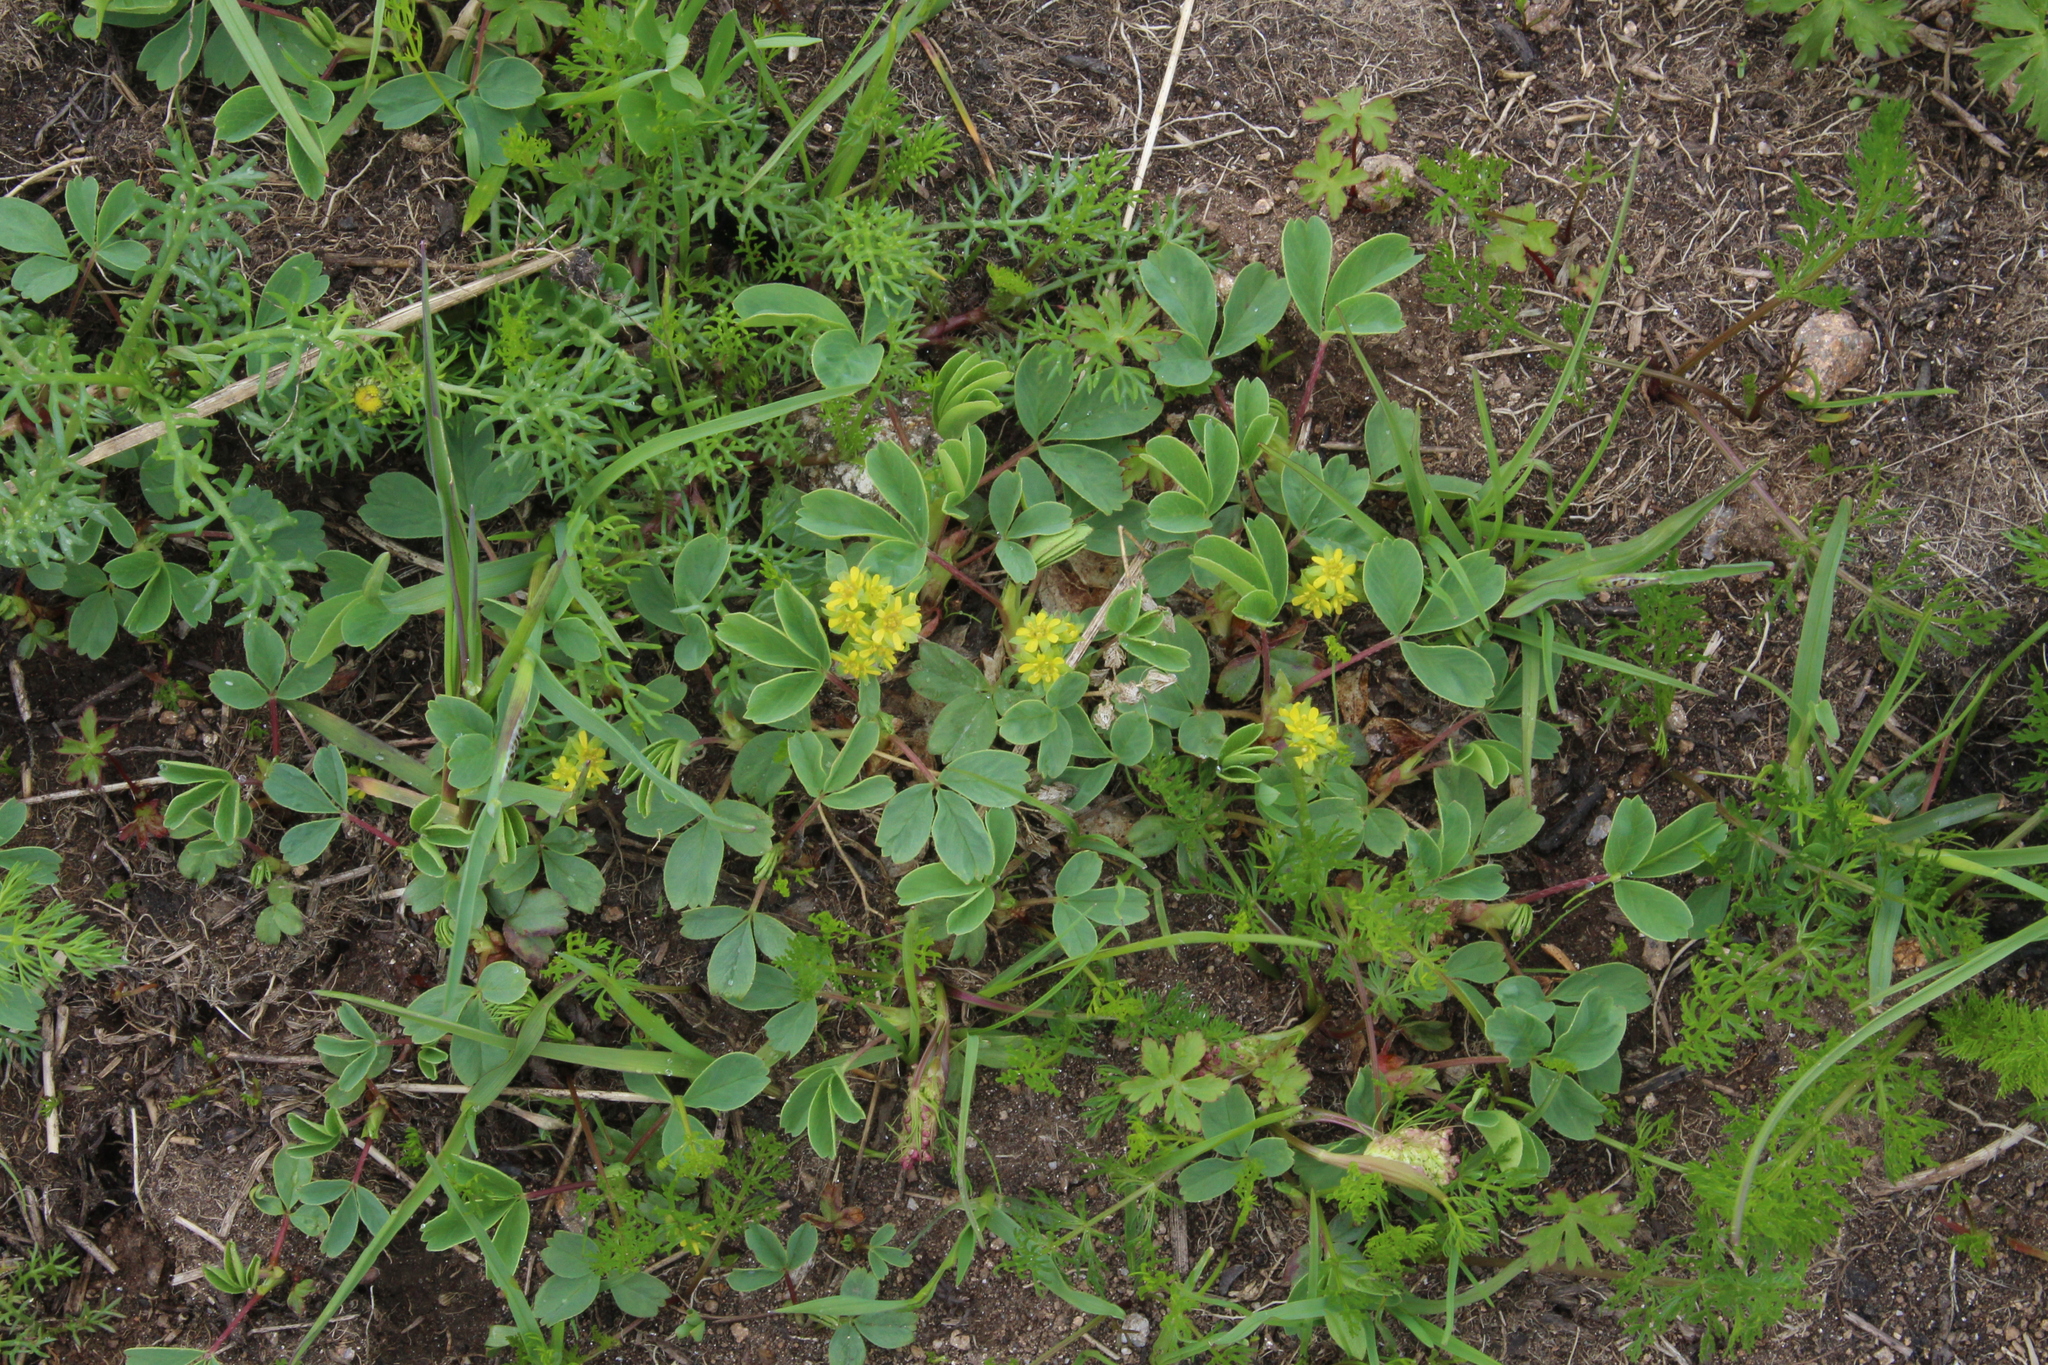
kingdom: Plantae
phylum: Tracheophyta
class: Magnoliopsida
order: Rosales
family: Rosaceae
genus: Sibbaldia
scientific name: Sibbaldia parviflora
